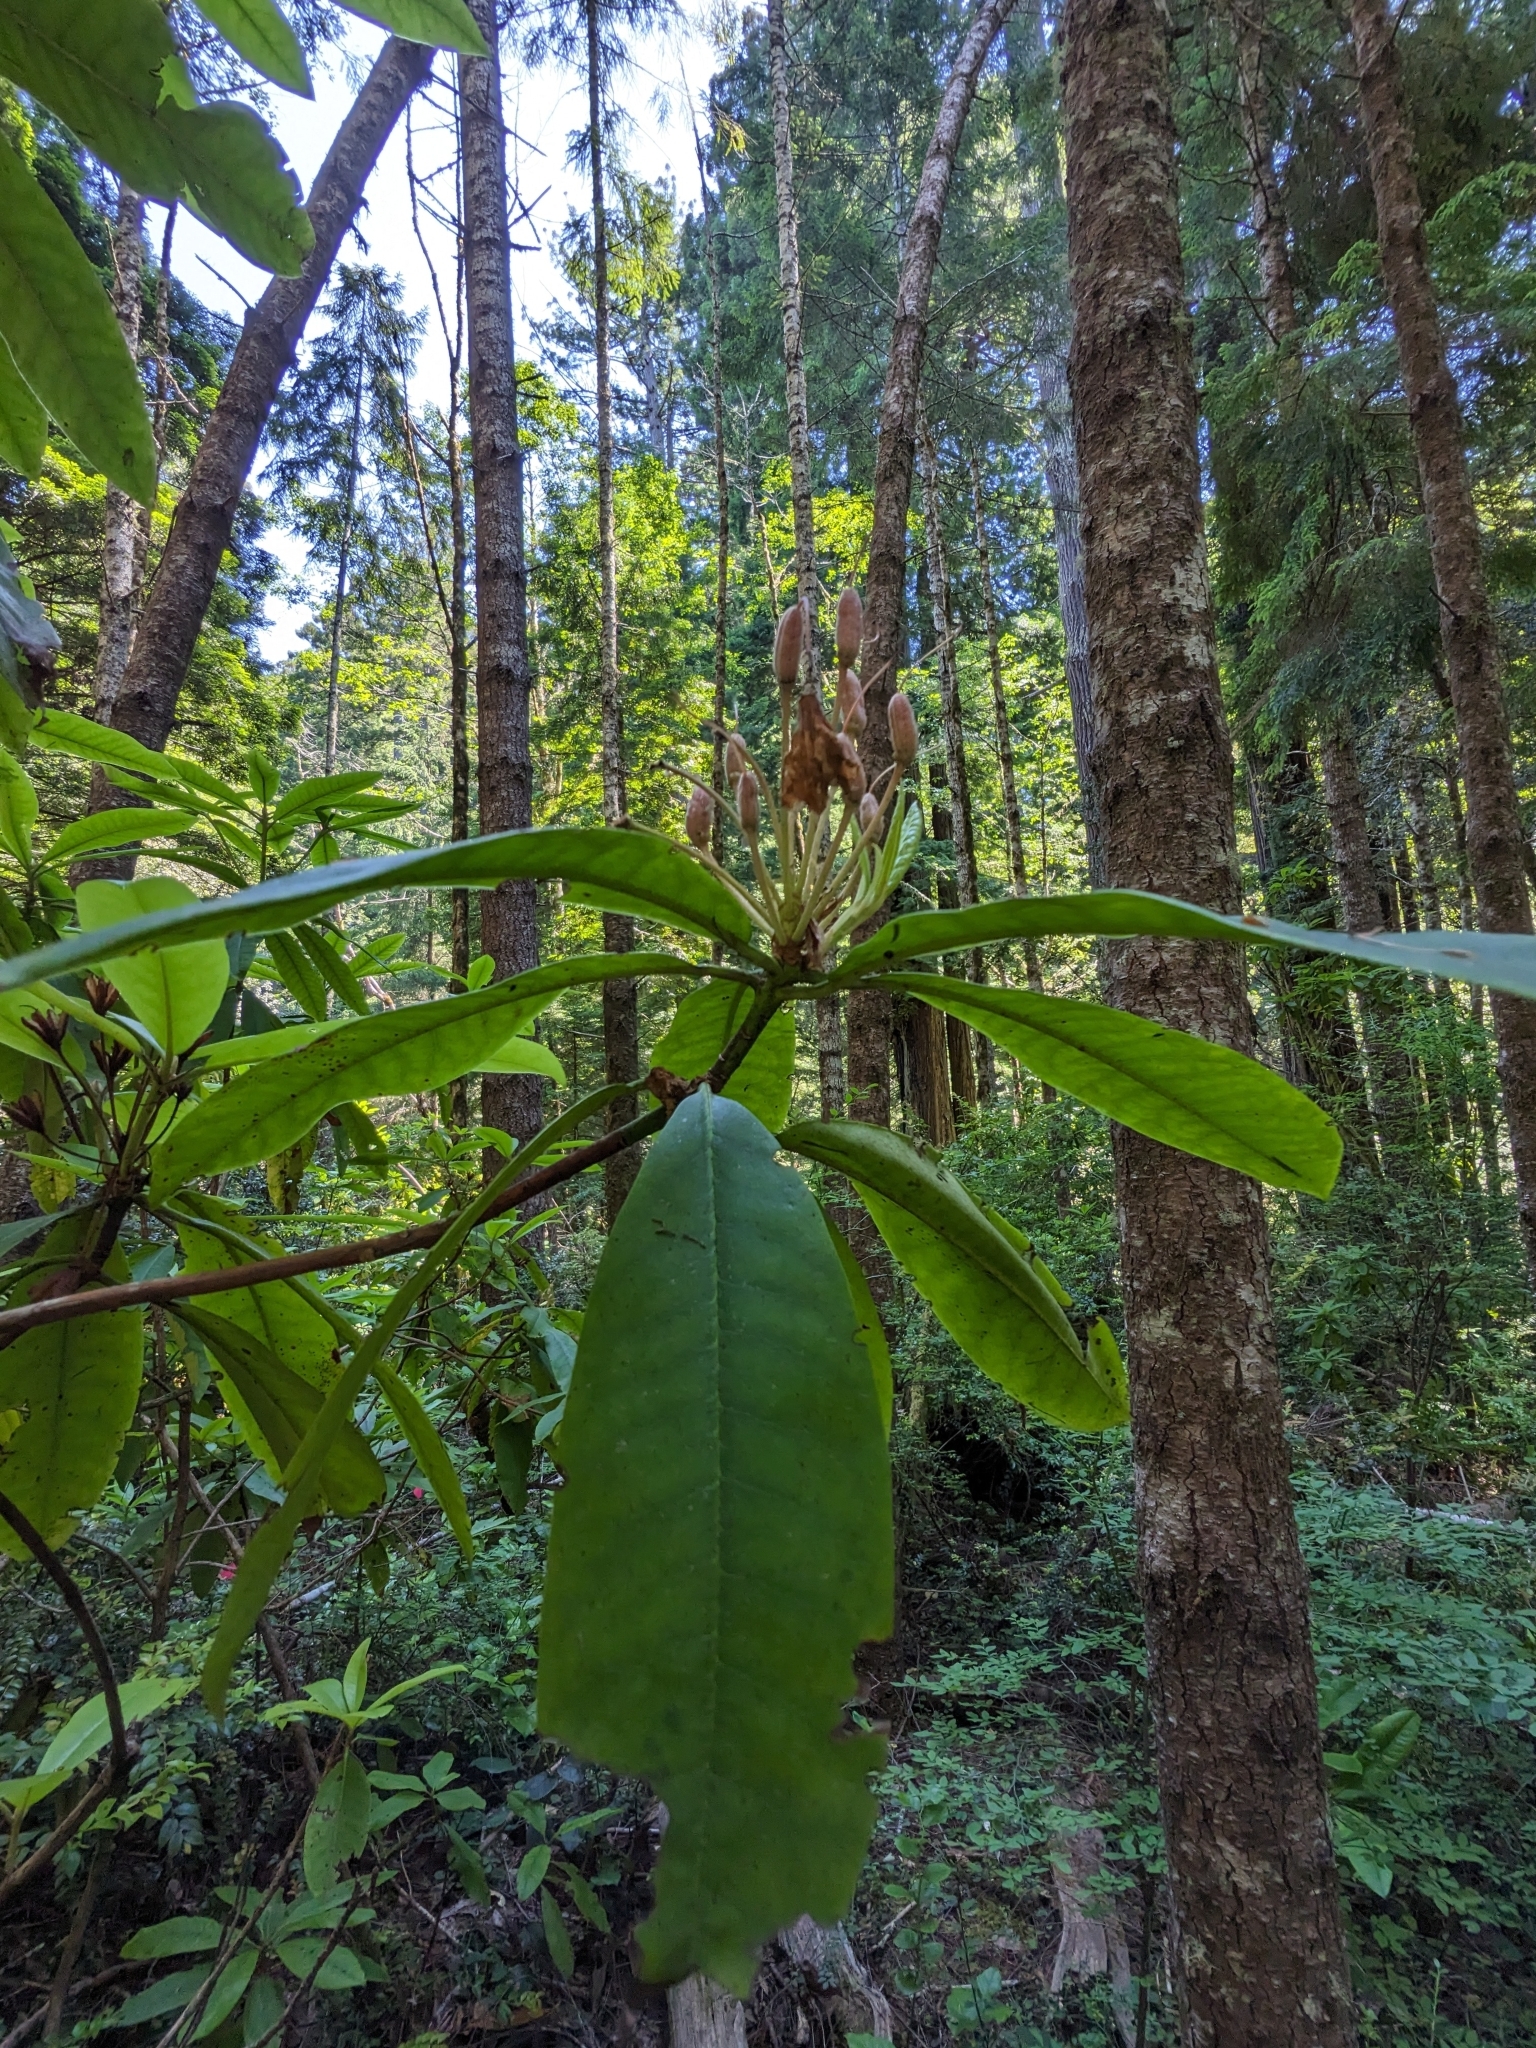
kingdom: Plantae
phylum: Tracheophyta
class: Magnoliopsida
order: Ericales
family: Ericaceae
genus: Rhododendron
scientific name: Rhododendron macrophyllum
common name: California rose bay
